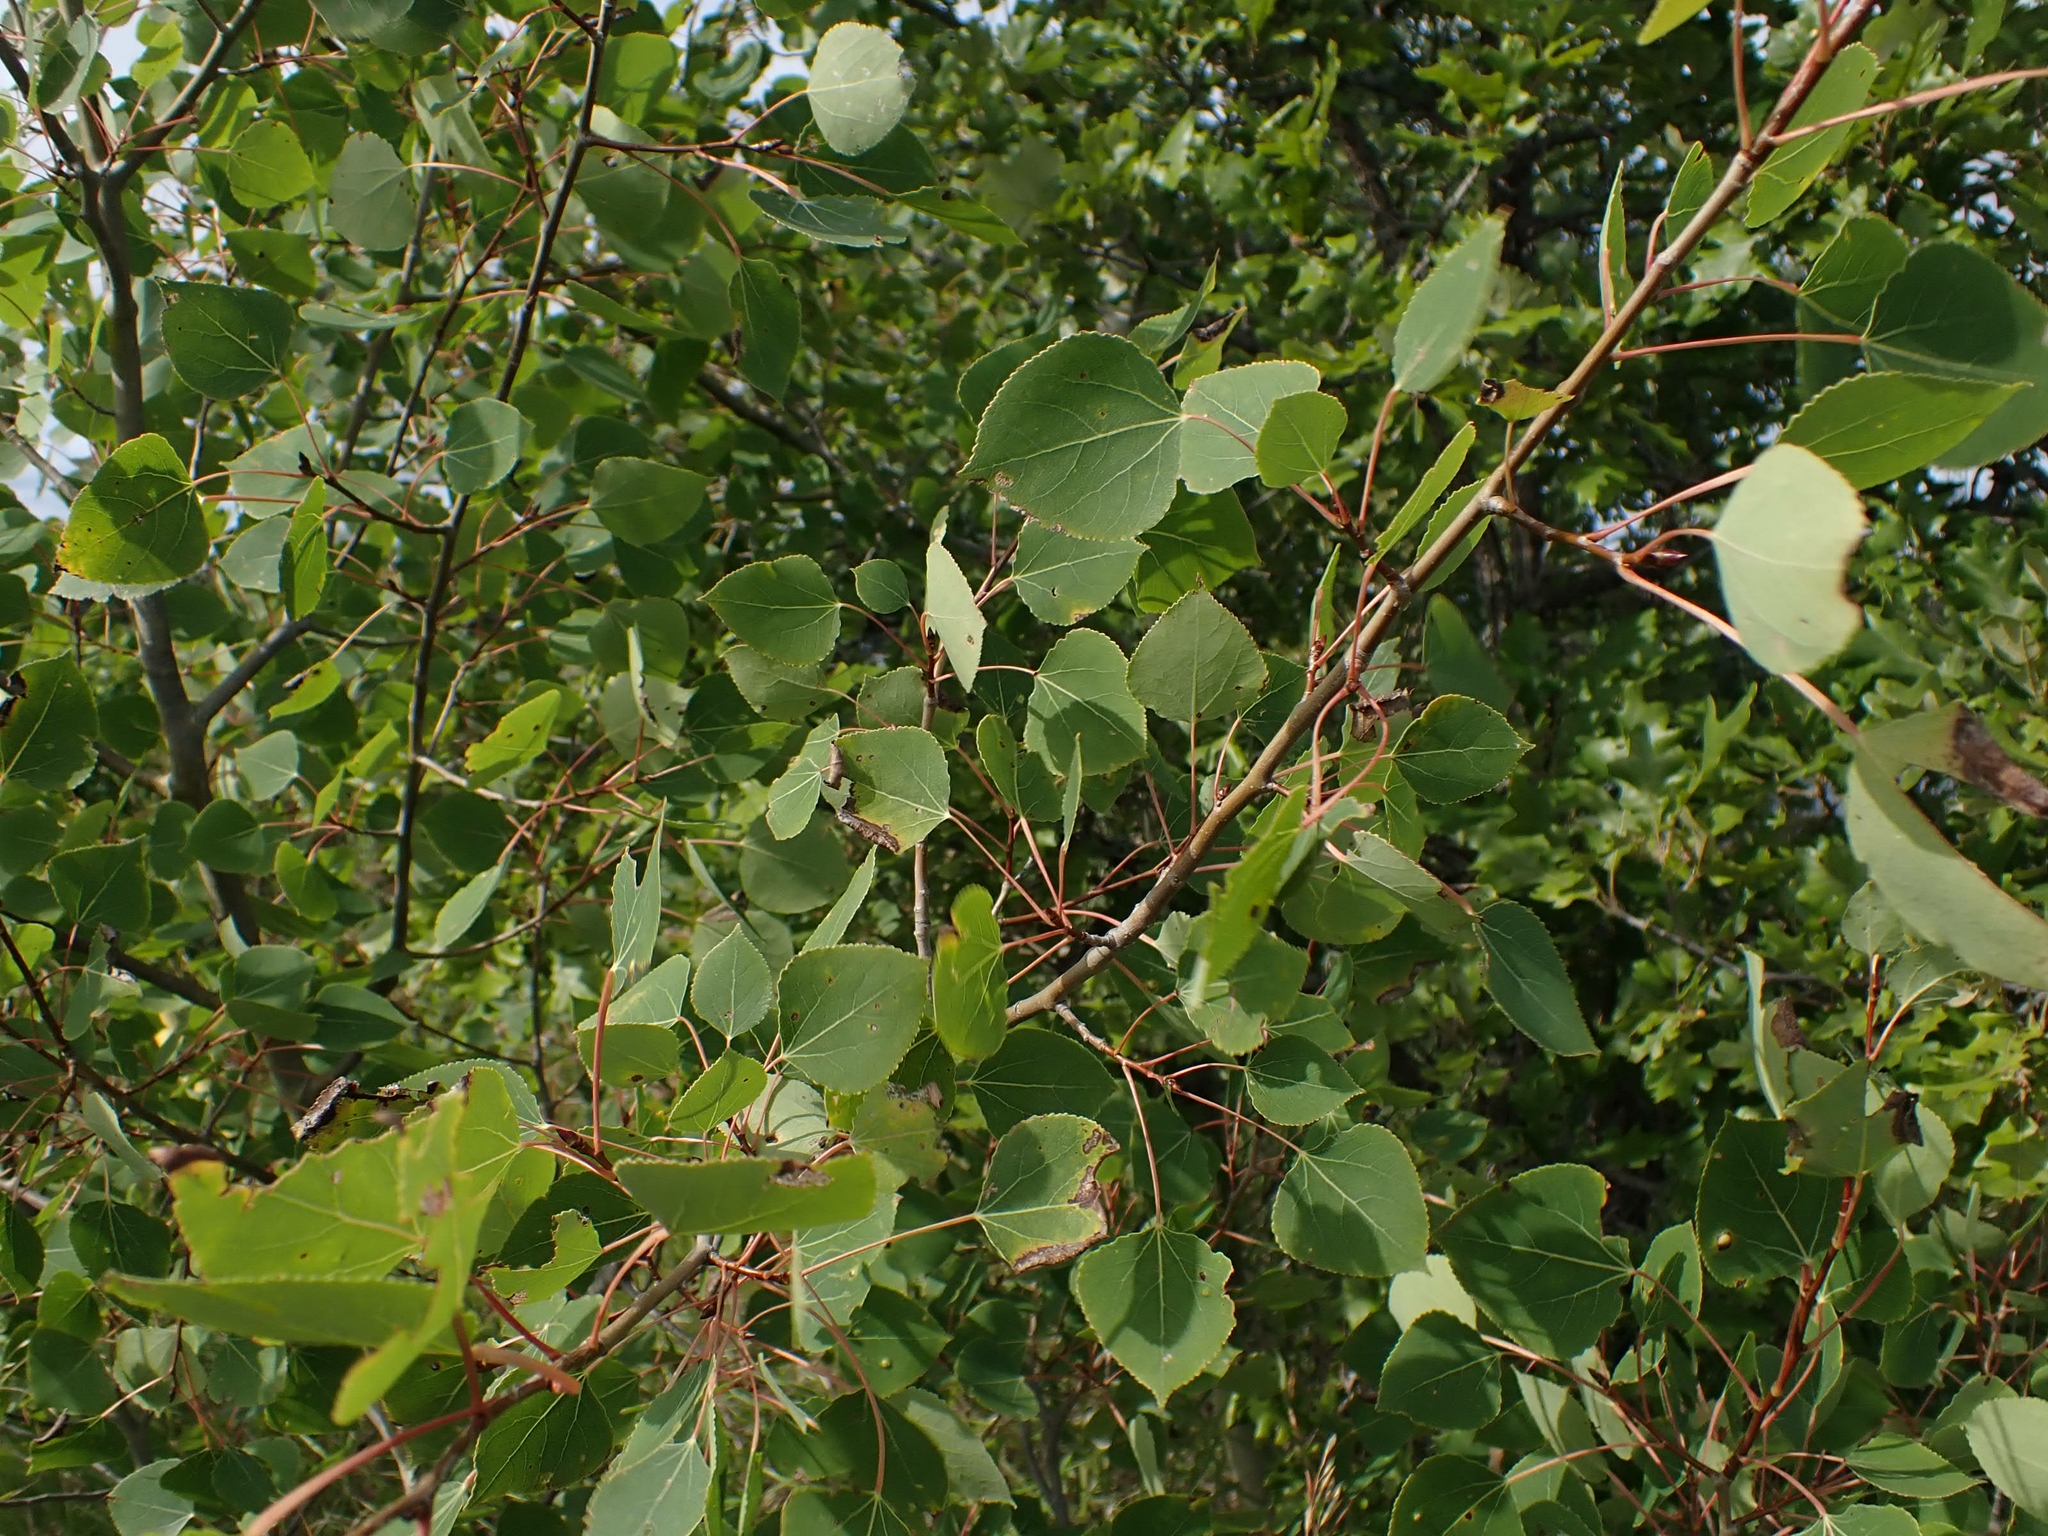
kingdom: Plantae
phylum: Tracheophyta
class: Magnoliopsida
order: Malpighiales
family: Salicaceae
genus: Populus
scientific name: Populus tremuloides
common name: Quaking aspen
